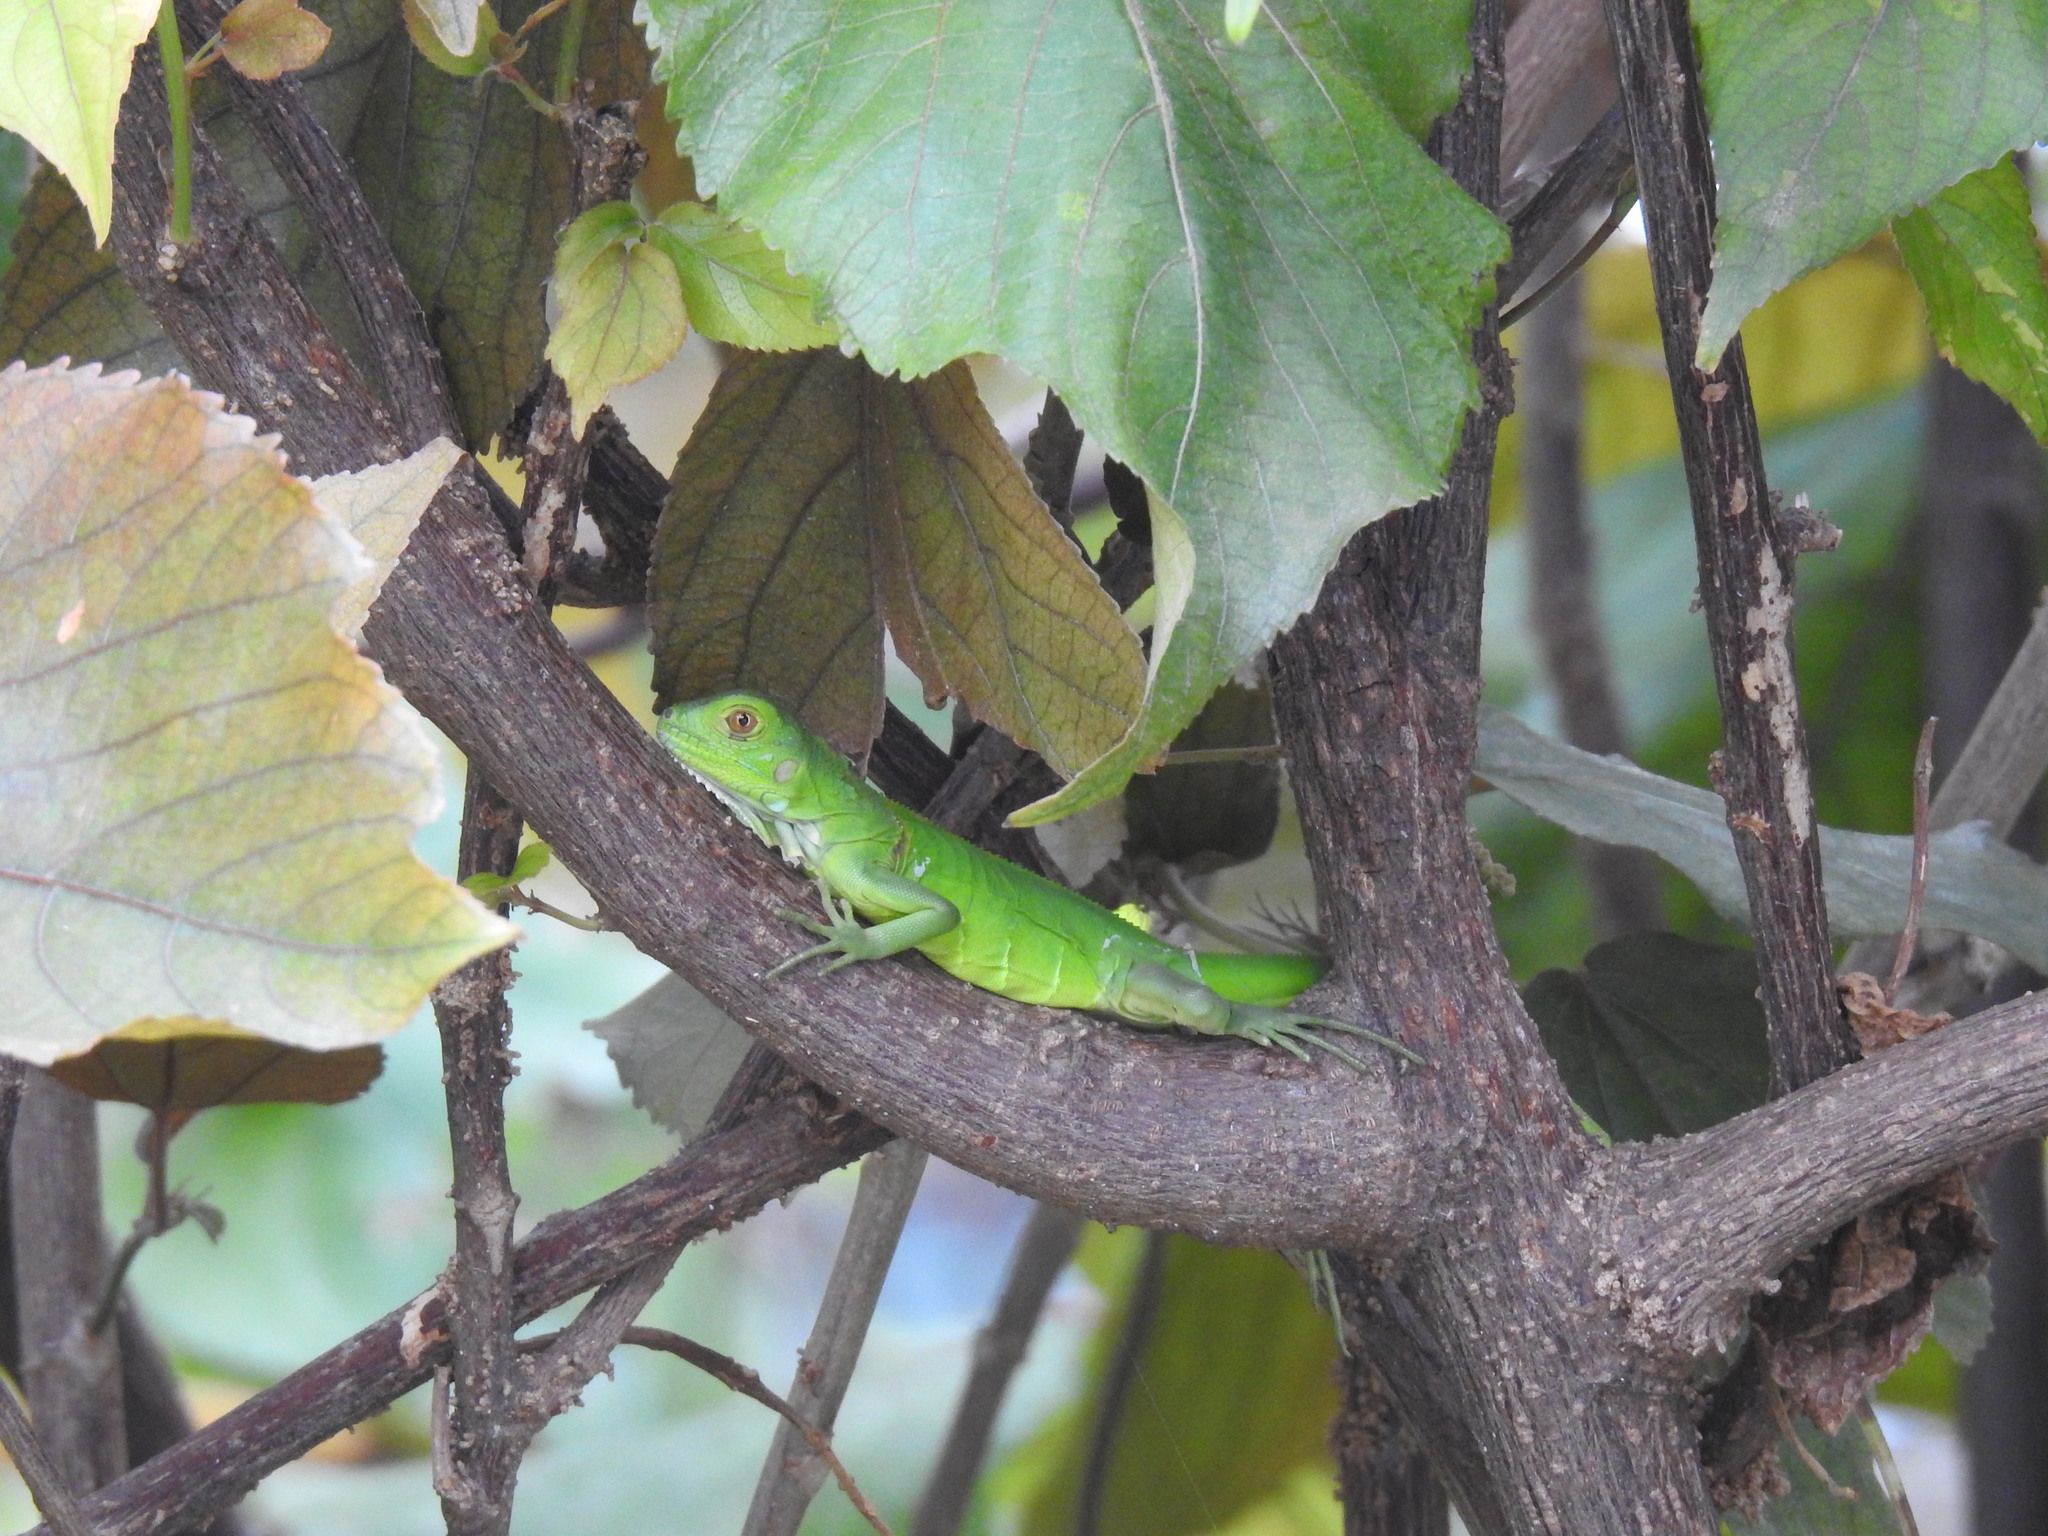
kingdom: Animalia
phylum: Chordata
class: Squamata
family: Iguanidae
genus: Iguana
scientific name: Iguana iguana
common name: Green iguana
